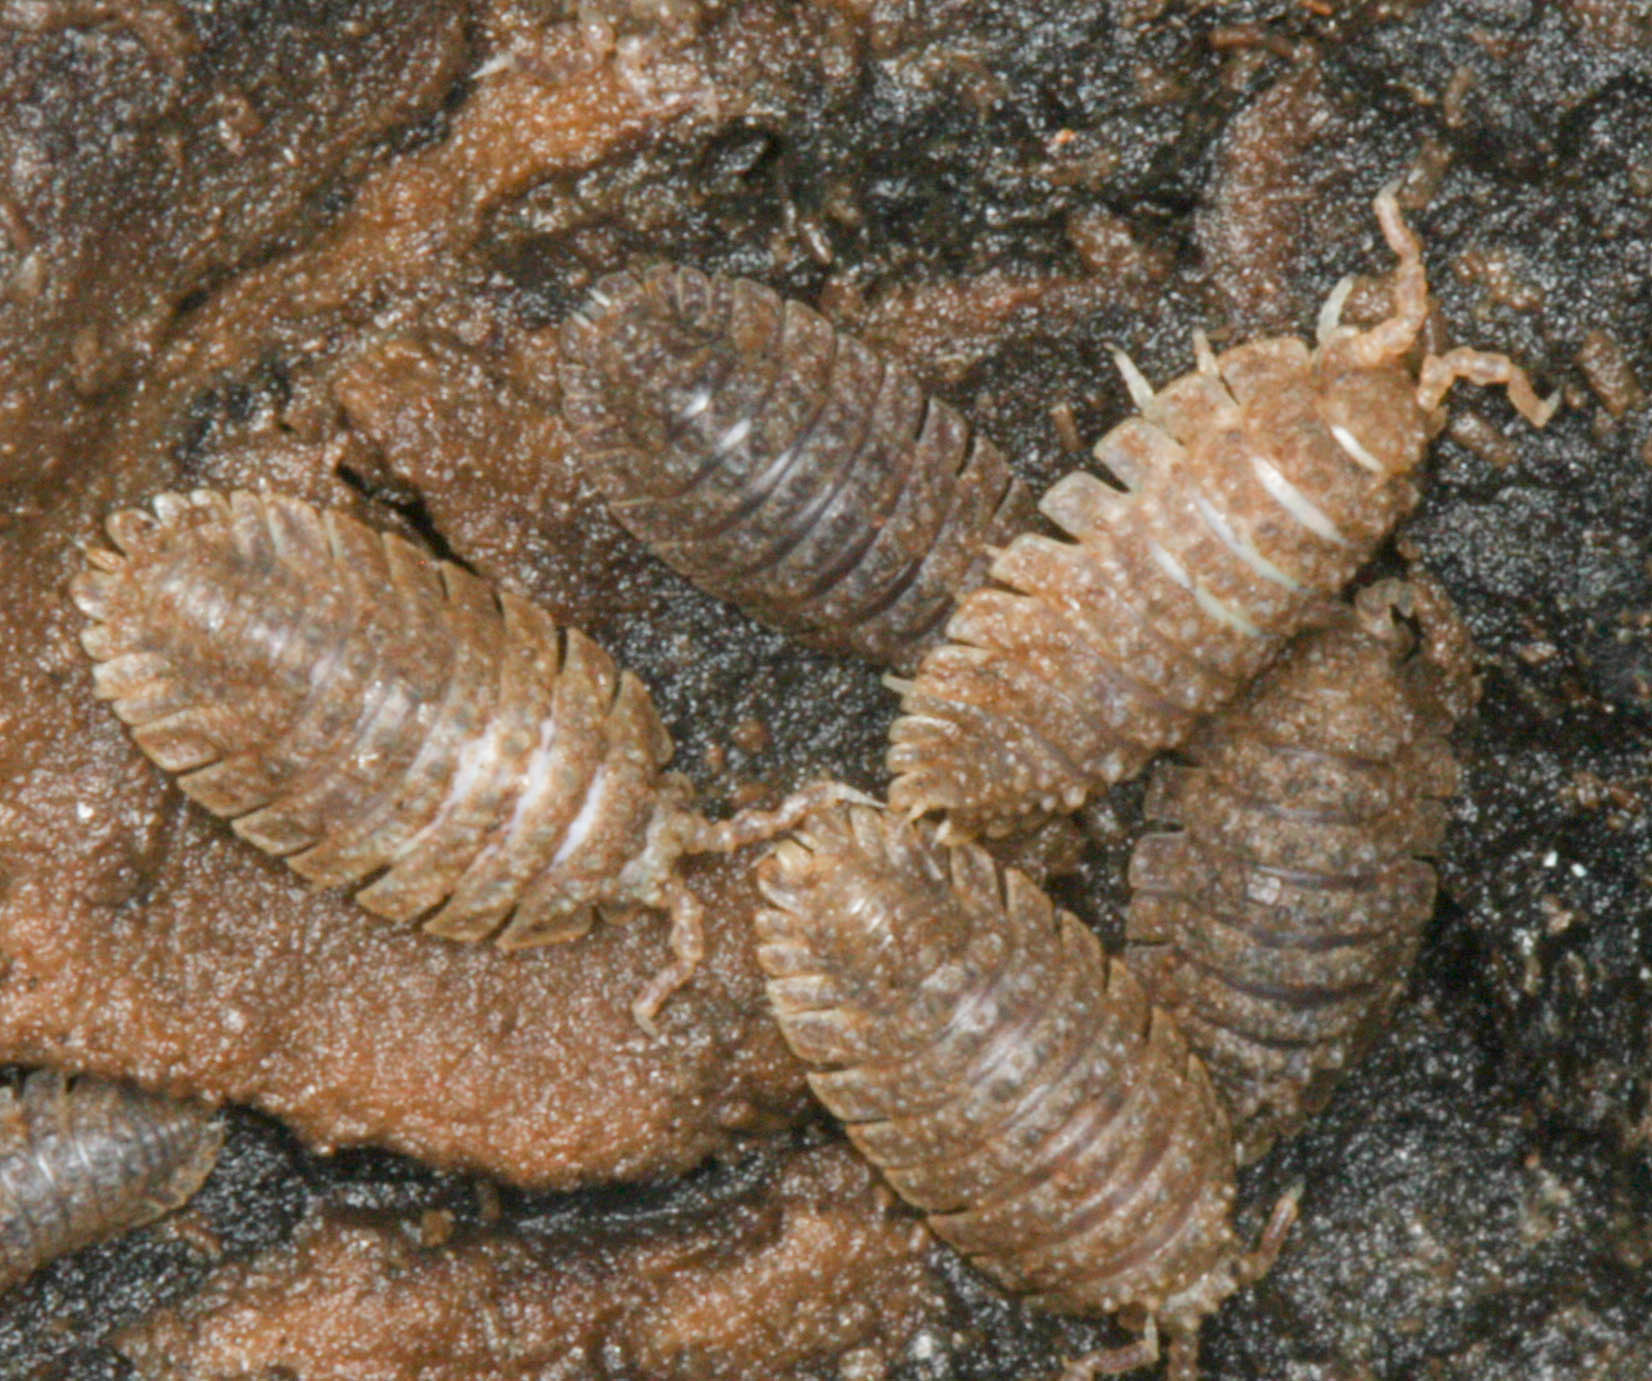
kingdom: Animalia
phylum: Arthropoda
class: Malacostraca
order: Isopoda
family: Detonidae
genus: Armadilloniscus
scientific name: Armadilloniscus coronacapitalis
